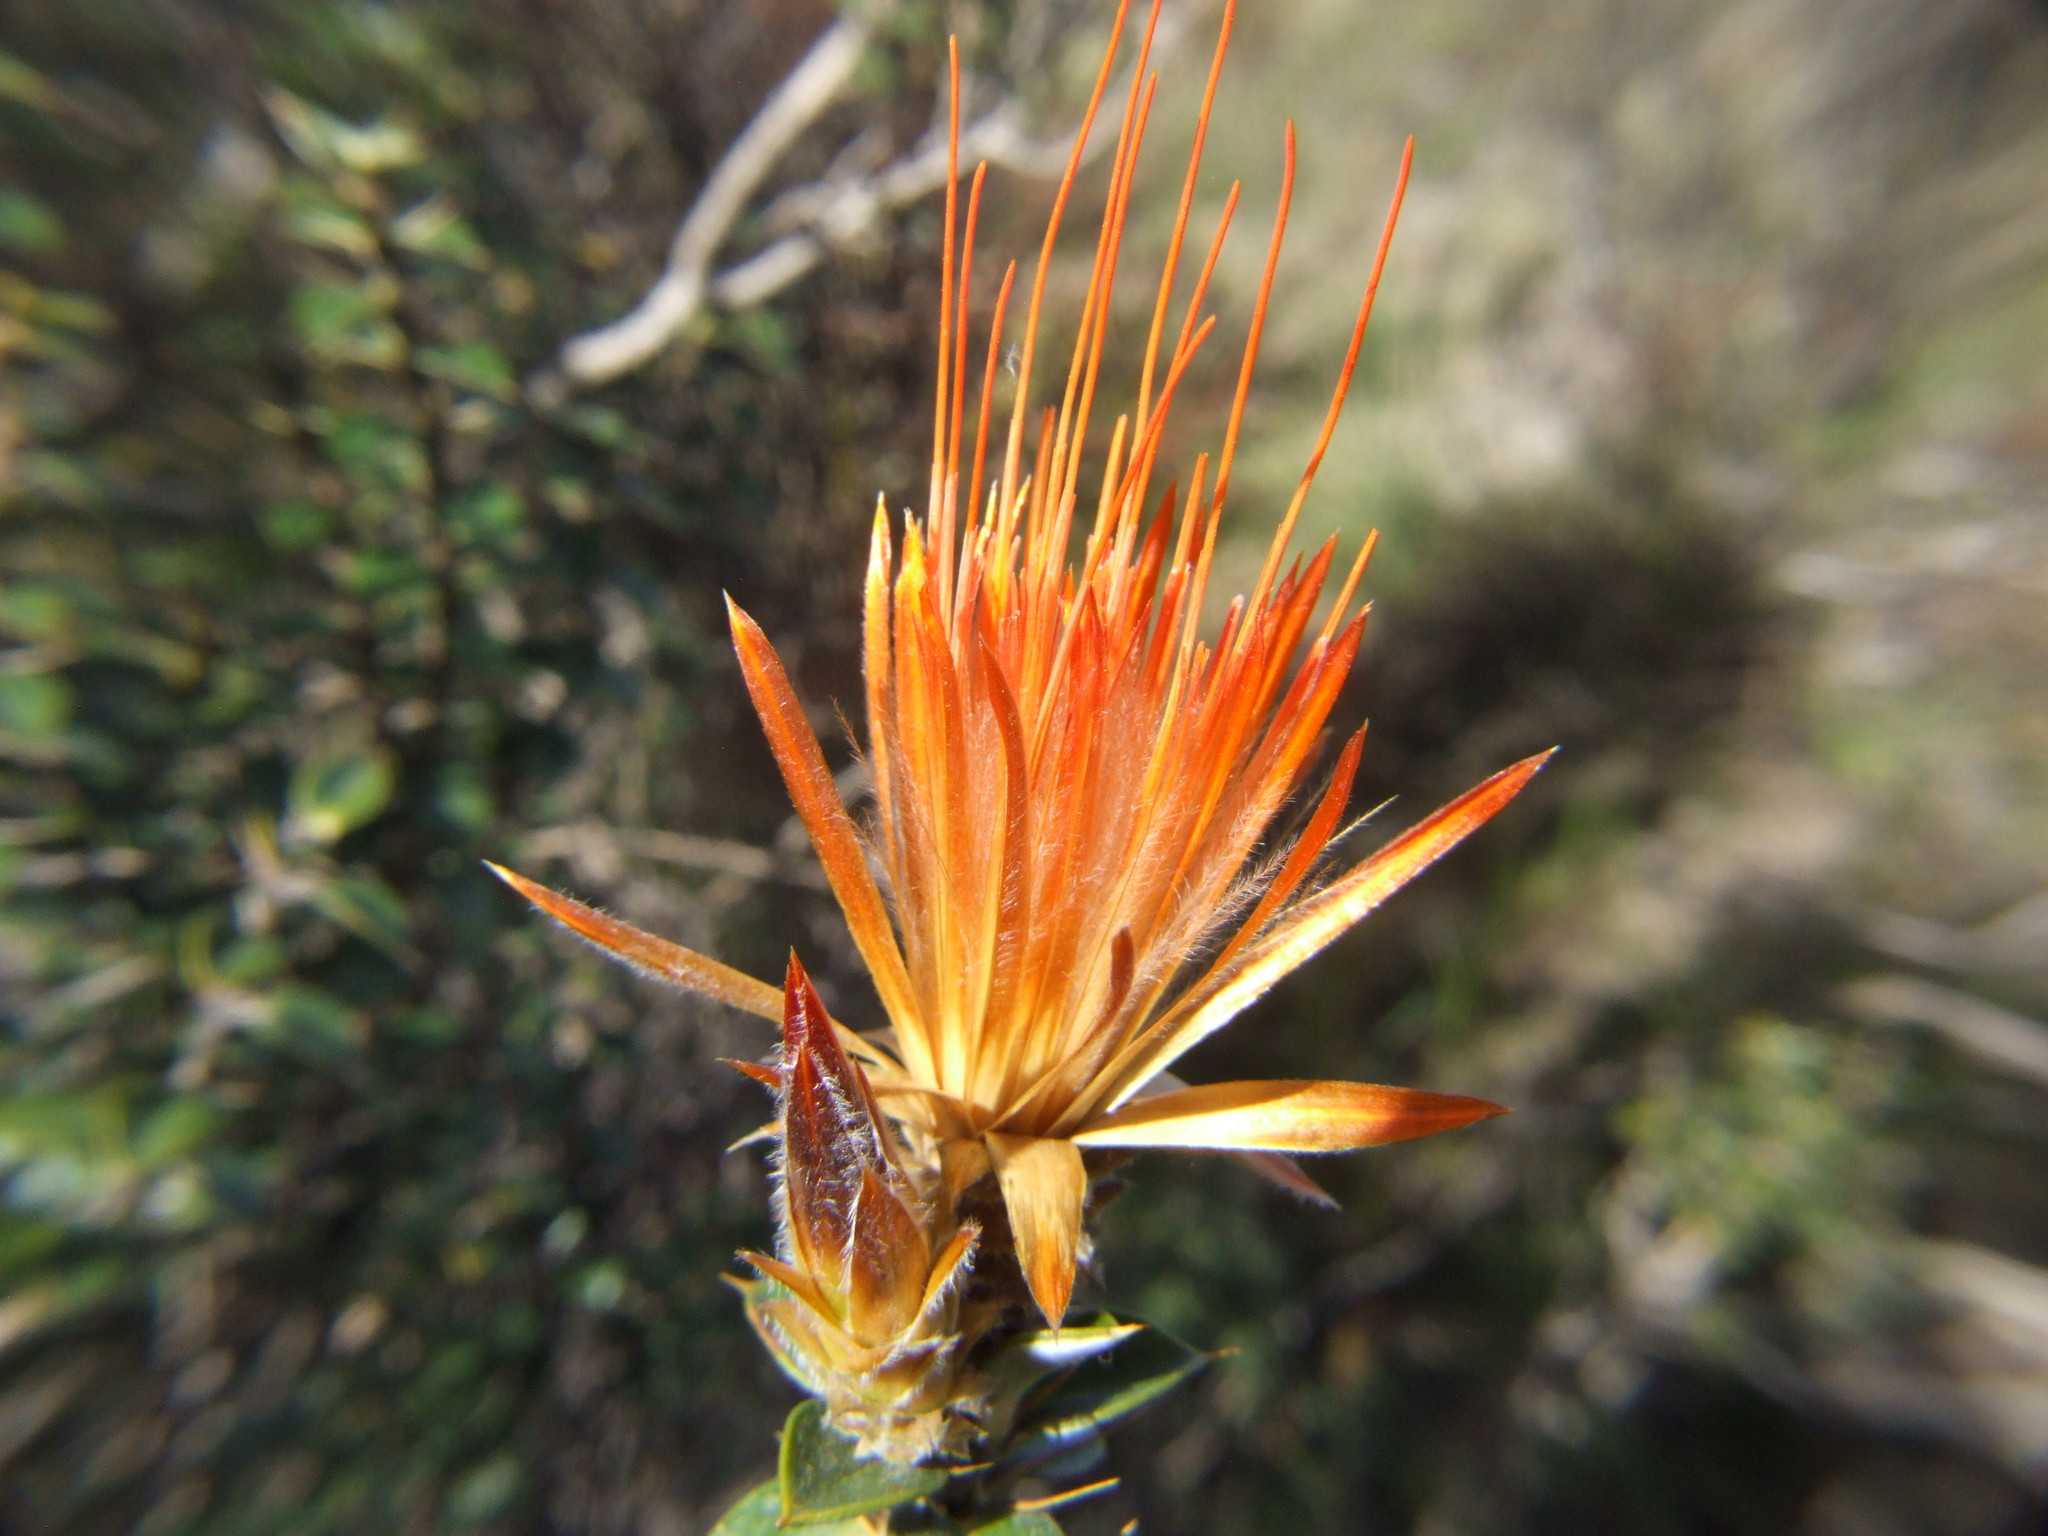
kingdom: Plantae
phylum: Tracheophyta
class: Magnoliopsida
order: Asterales
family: Asteraceae
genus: Chuquiraga
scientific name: Chuquiraga spinosa
